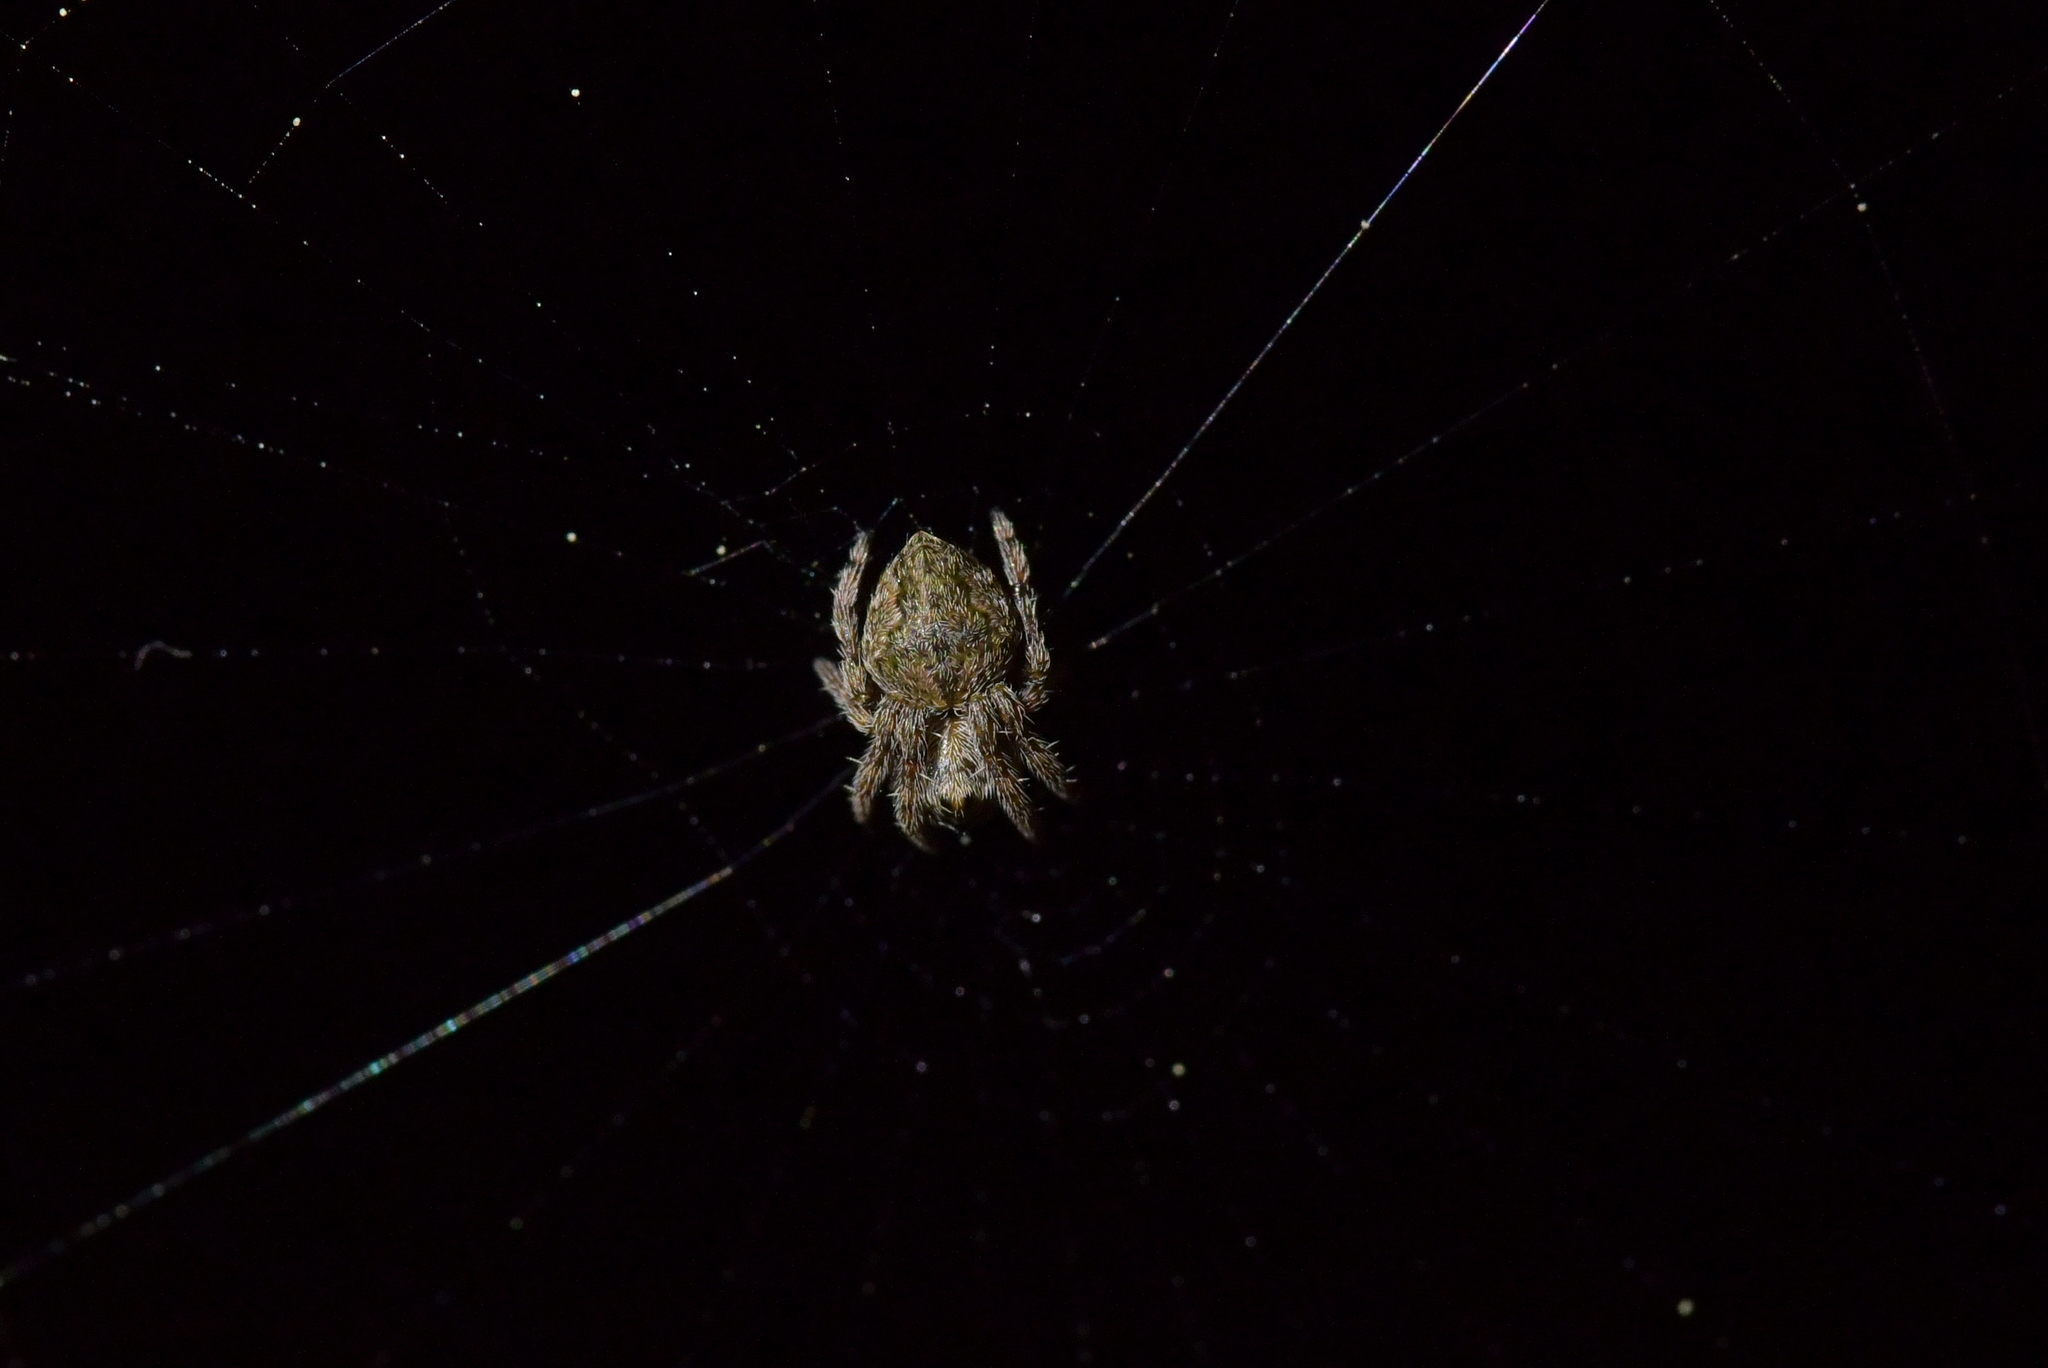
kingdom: Animalia
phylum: Arthropoda
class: Arachnida
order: Araneae
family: Araneidae
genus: Eriophora
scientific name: Eriophora pustulosa
